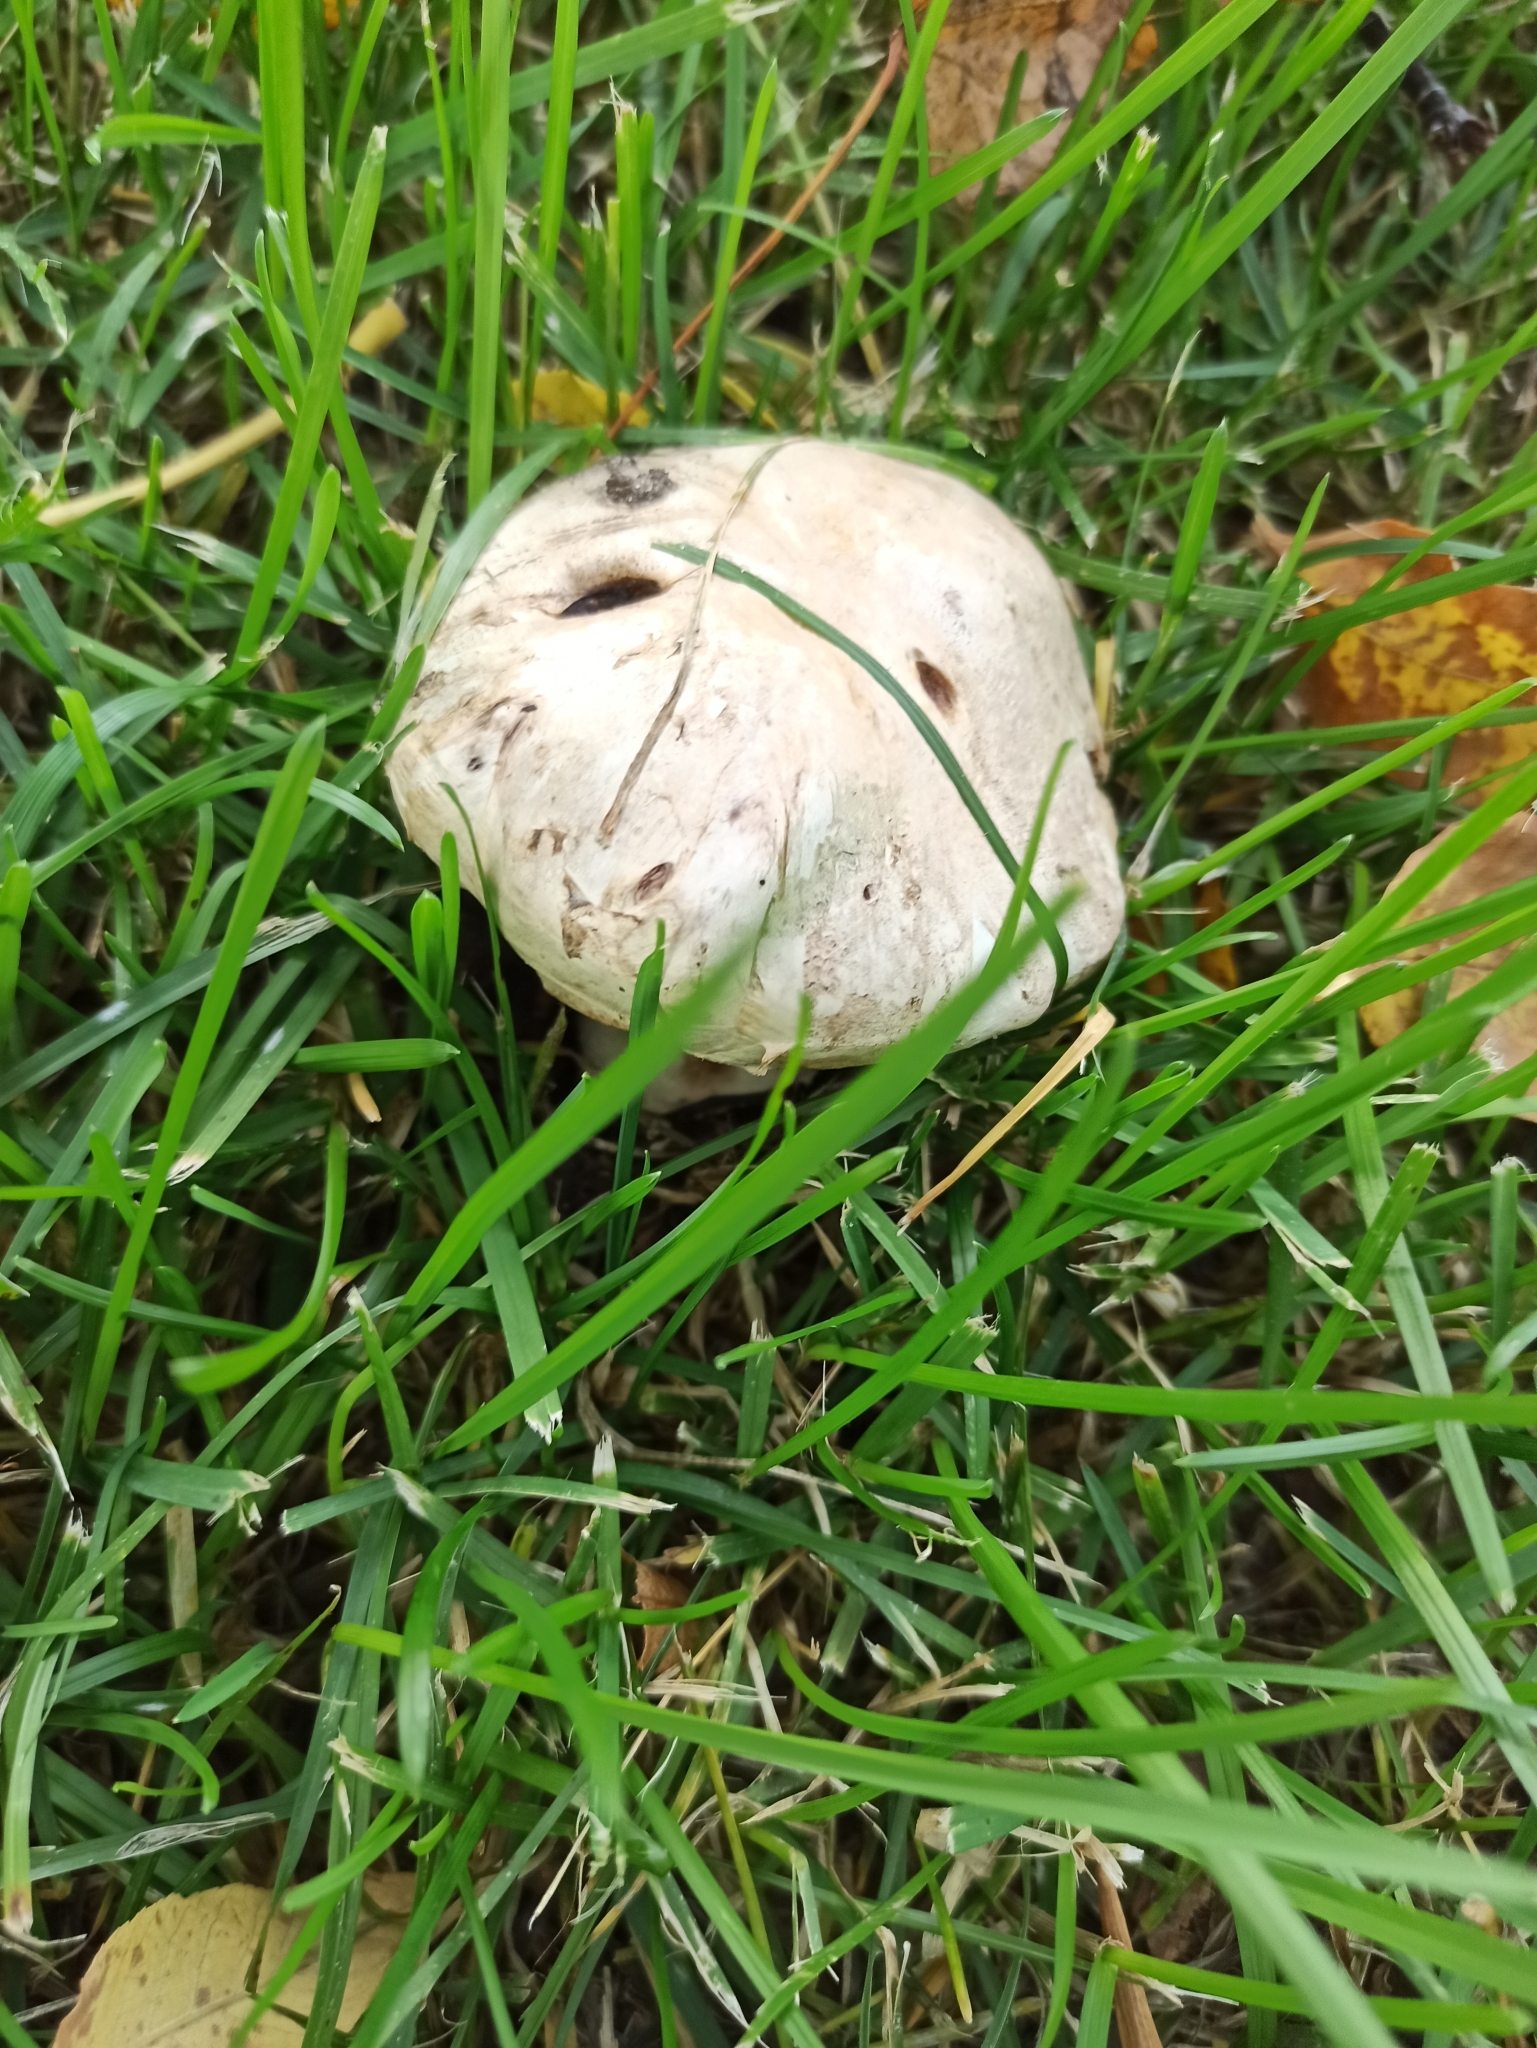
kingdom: Fungi
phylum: Basidiomycota
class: Agaricomycetes
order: Agaricales
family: Agaricaceae
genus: Agaricus
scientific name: Agaricus bitorquis
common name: Pavement mushroom
